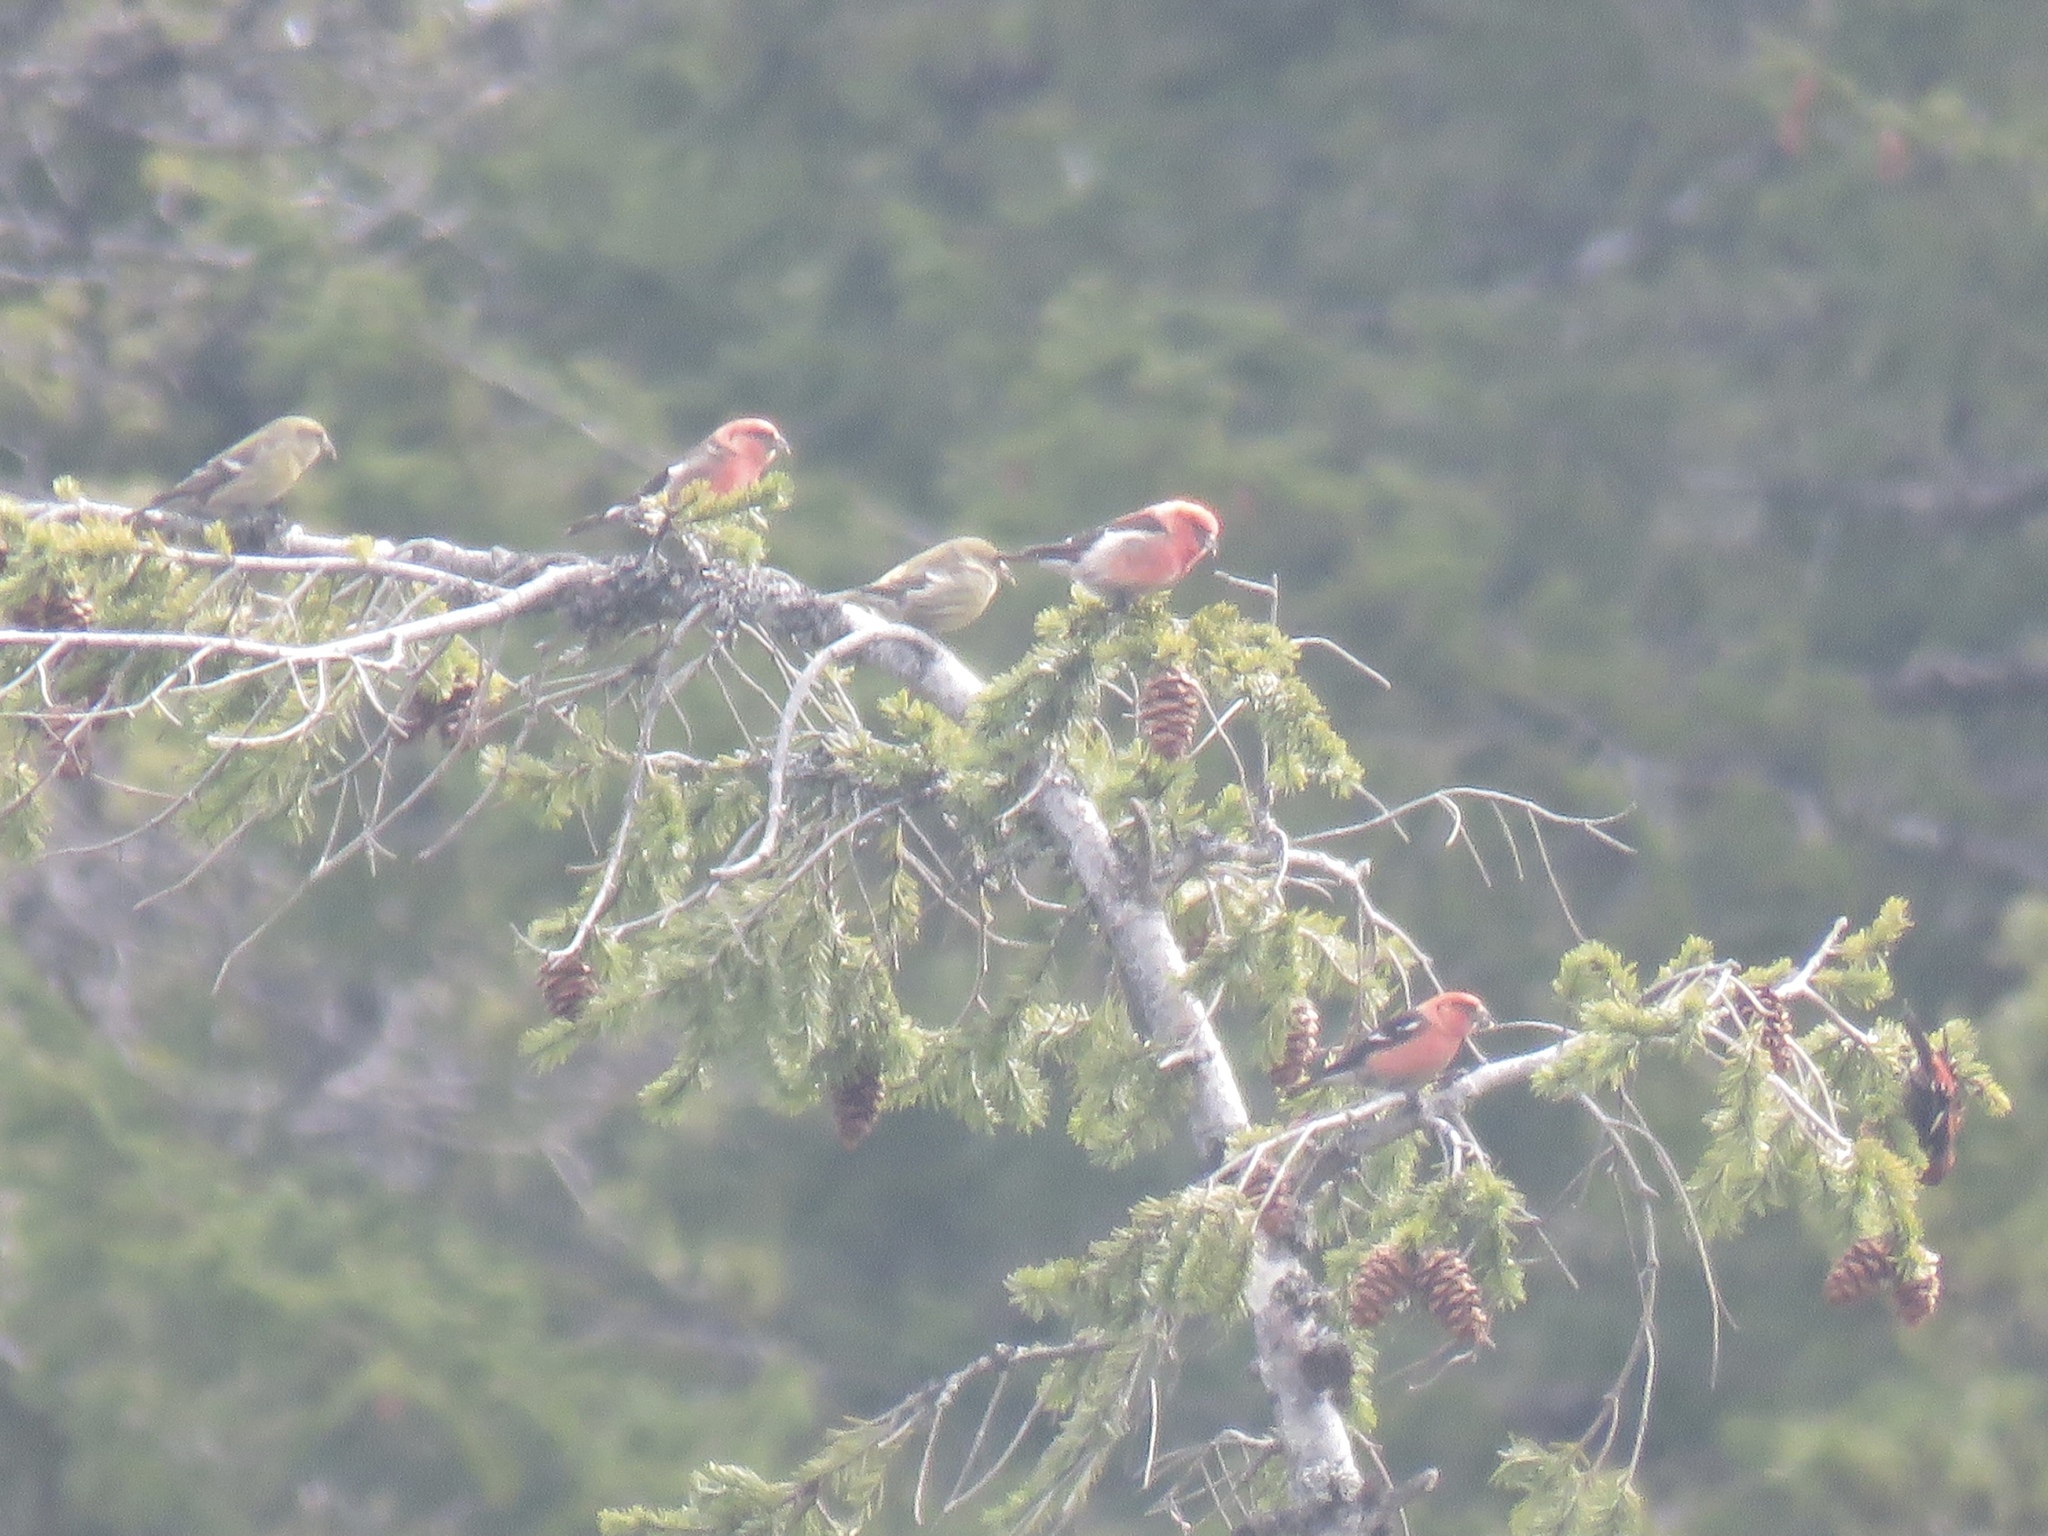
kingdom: Animalia
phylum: Chordata
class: Aves
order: Passeriformes
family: Fringillidae
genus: Loxia
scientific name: Loxia leucoptera
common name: Two-barred crossbill
